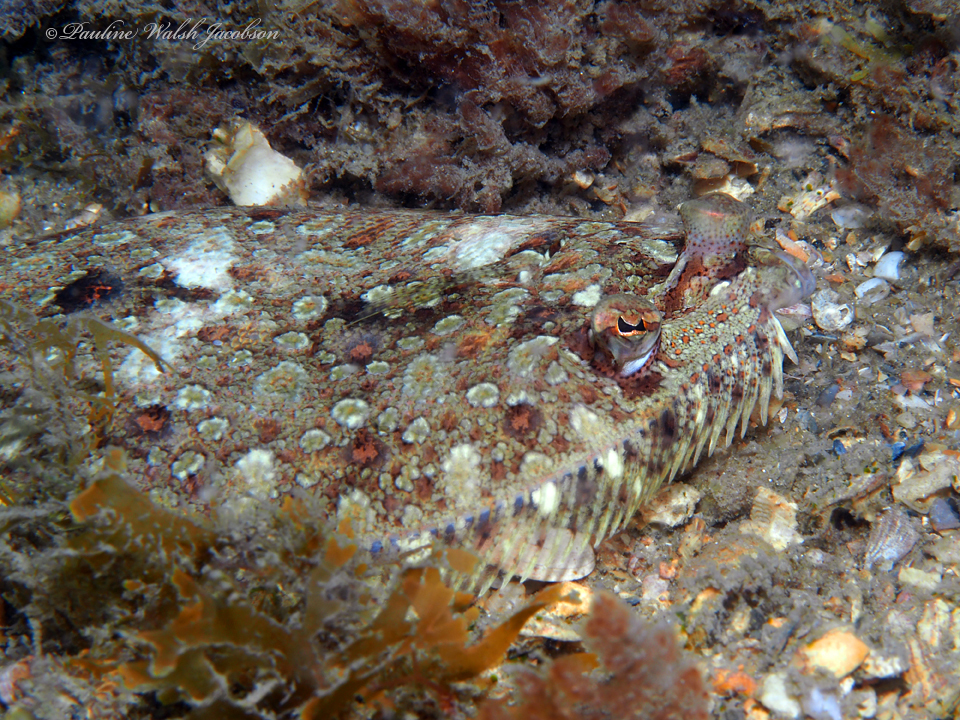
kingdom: Animalia
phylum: Chordata
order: Pleuronectiformes
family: Bothidae
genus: Bothus
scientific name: Bothus ocellatus
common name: Eyed flounder
